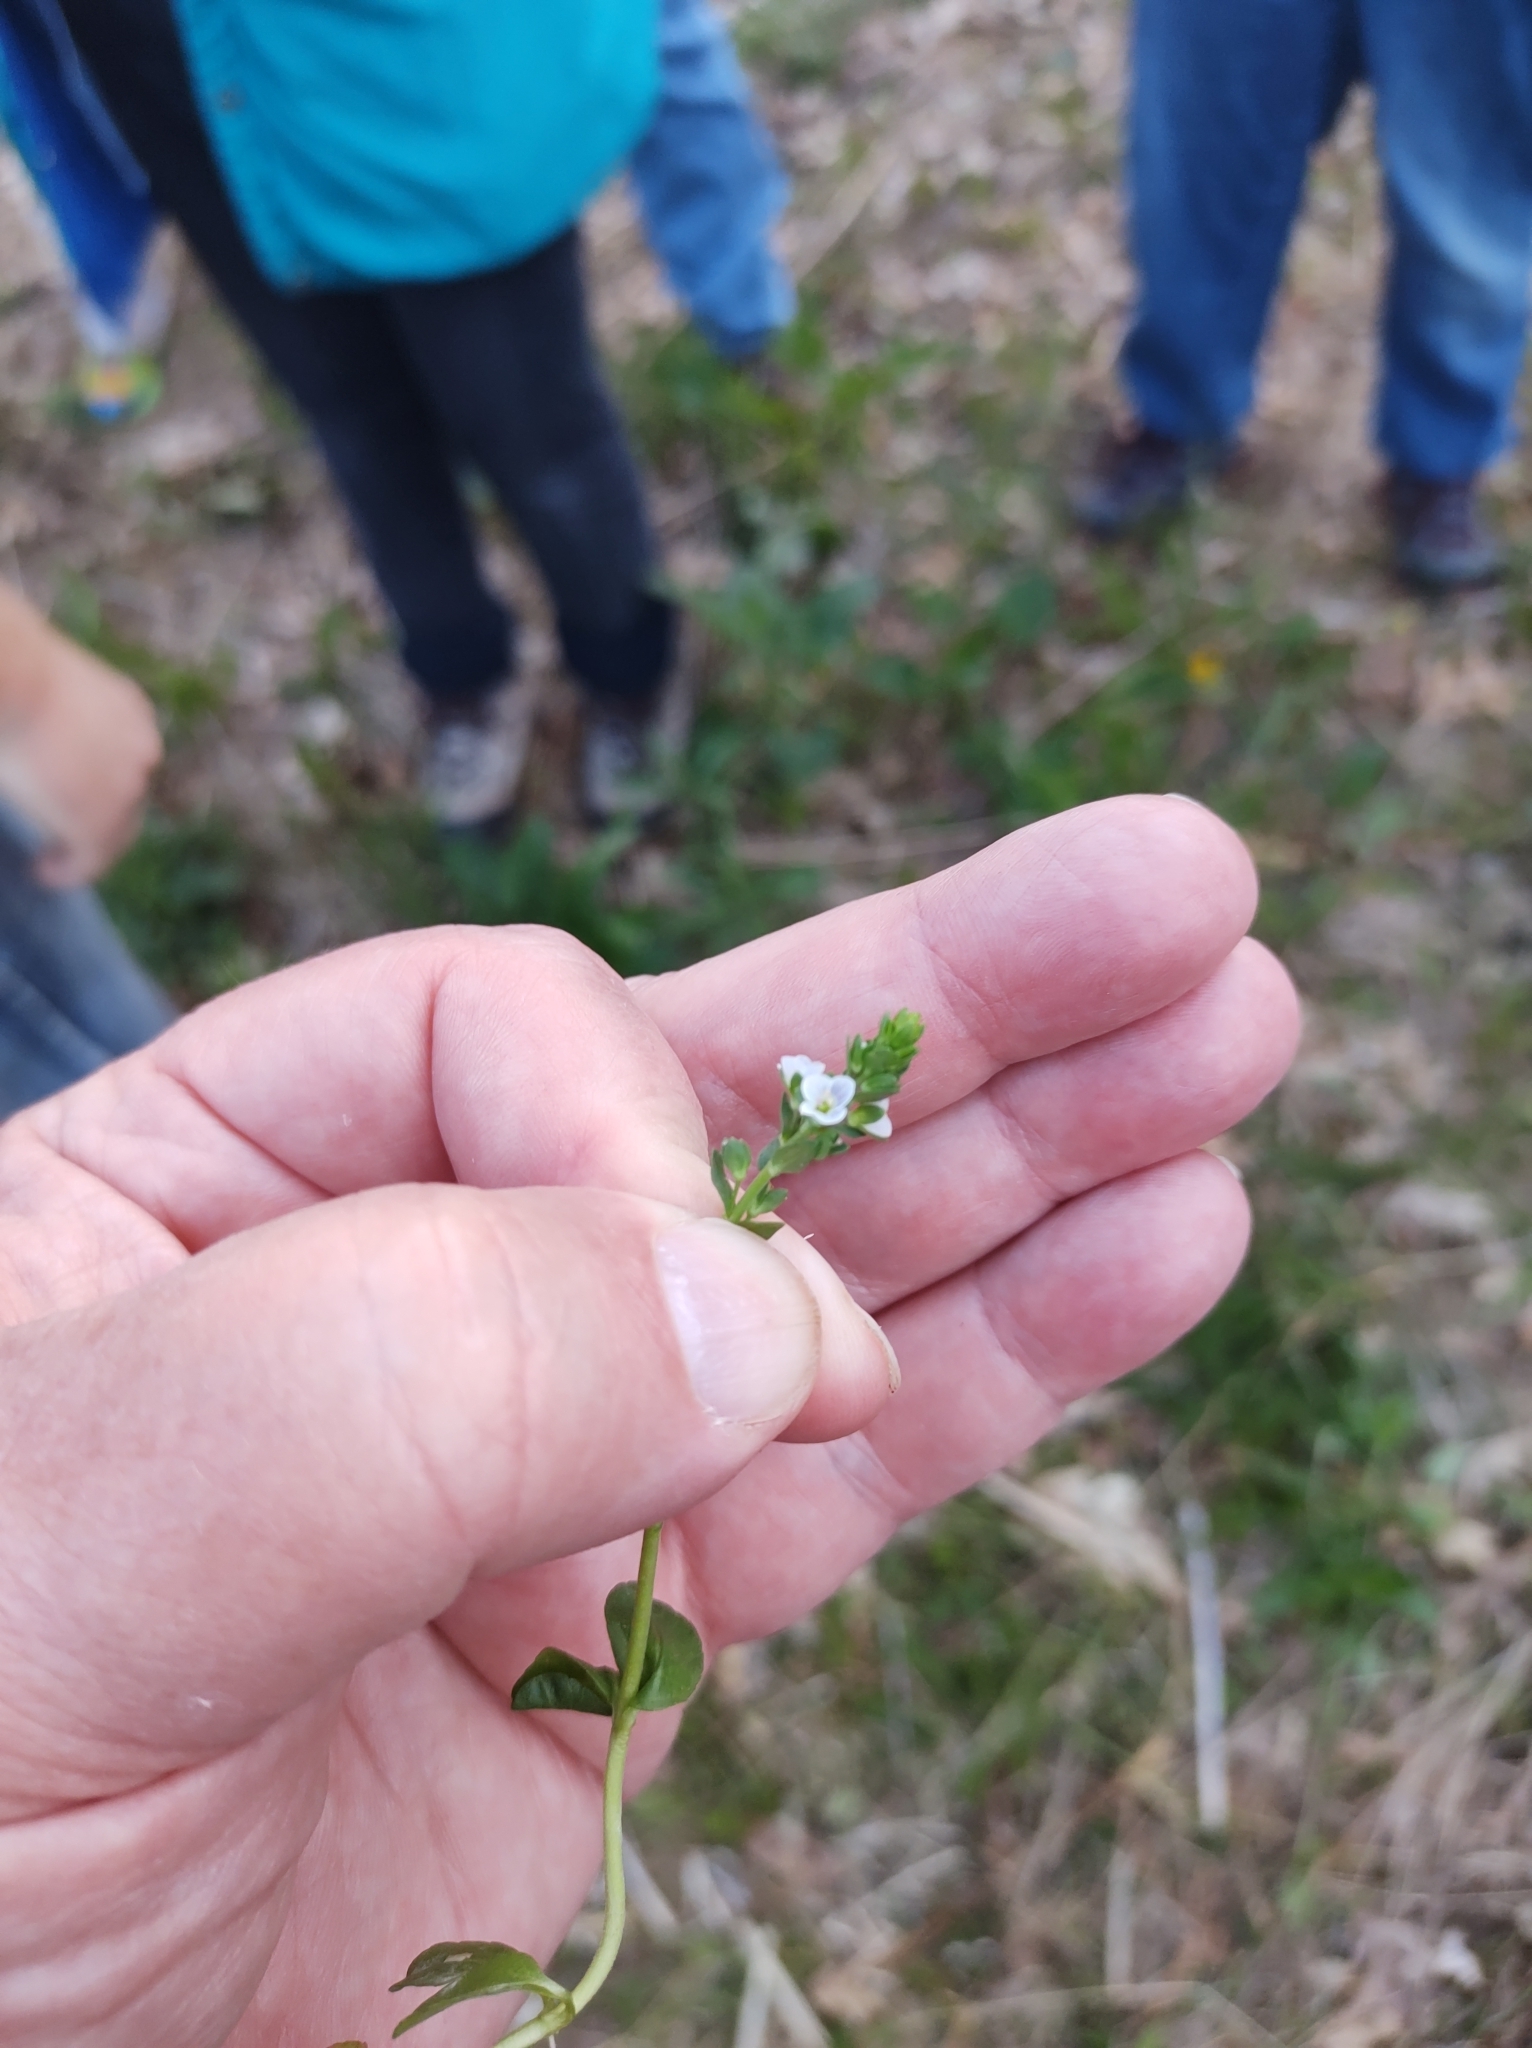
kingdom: Plantae
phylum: Tracheophyta
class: Magnoliopsida
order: Lamiales
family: Plantaginaceae
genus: Veronica
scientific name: Veronica serpyllifolia
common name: Thyme-leaved speedwell
